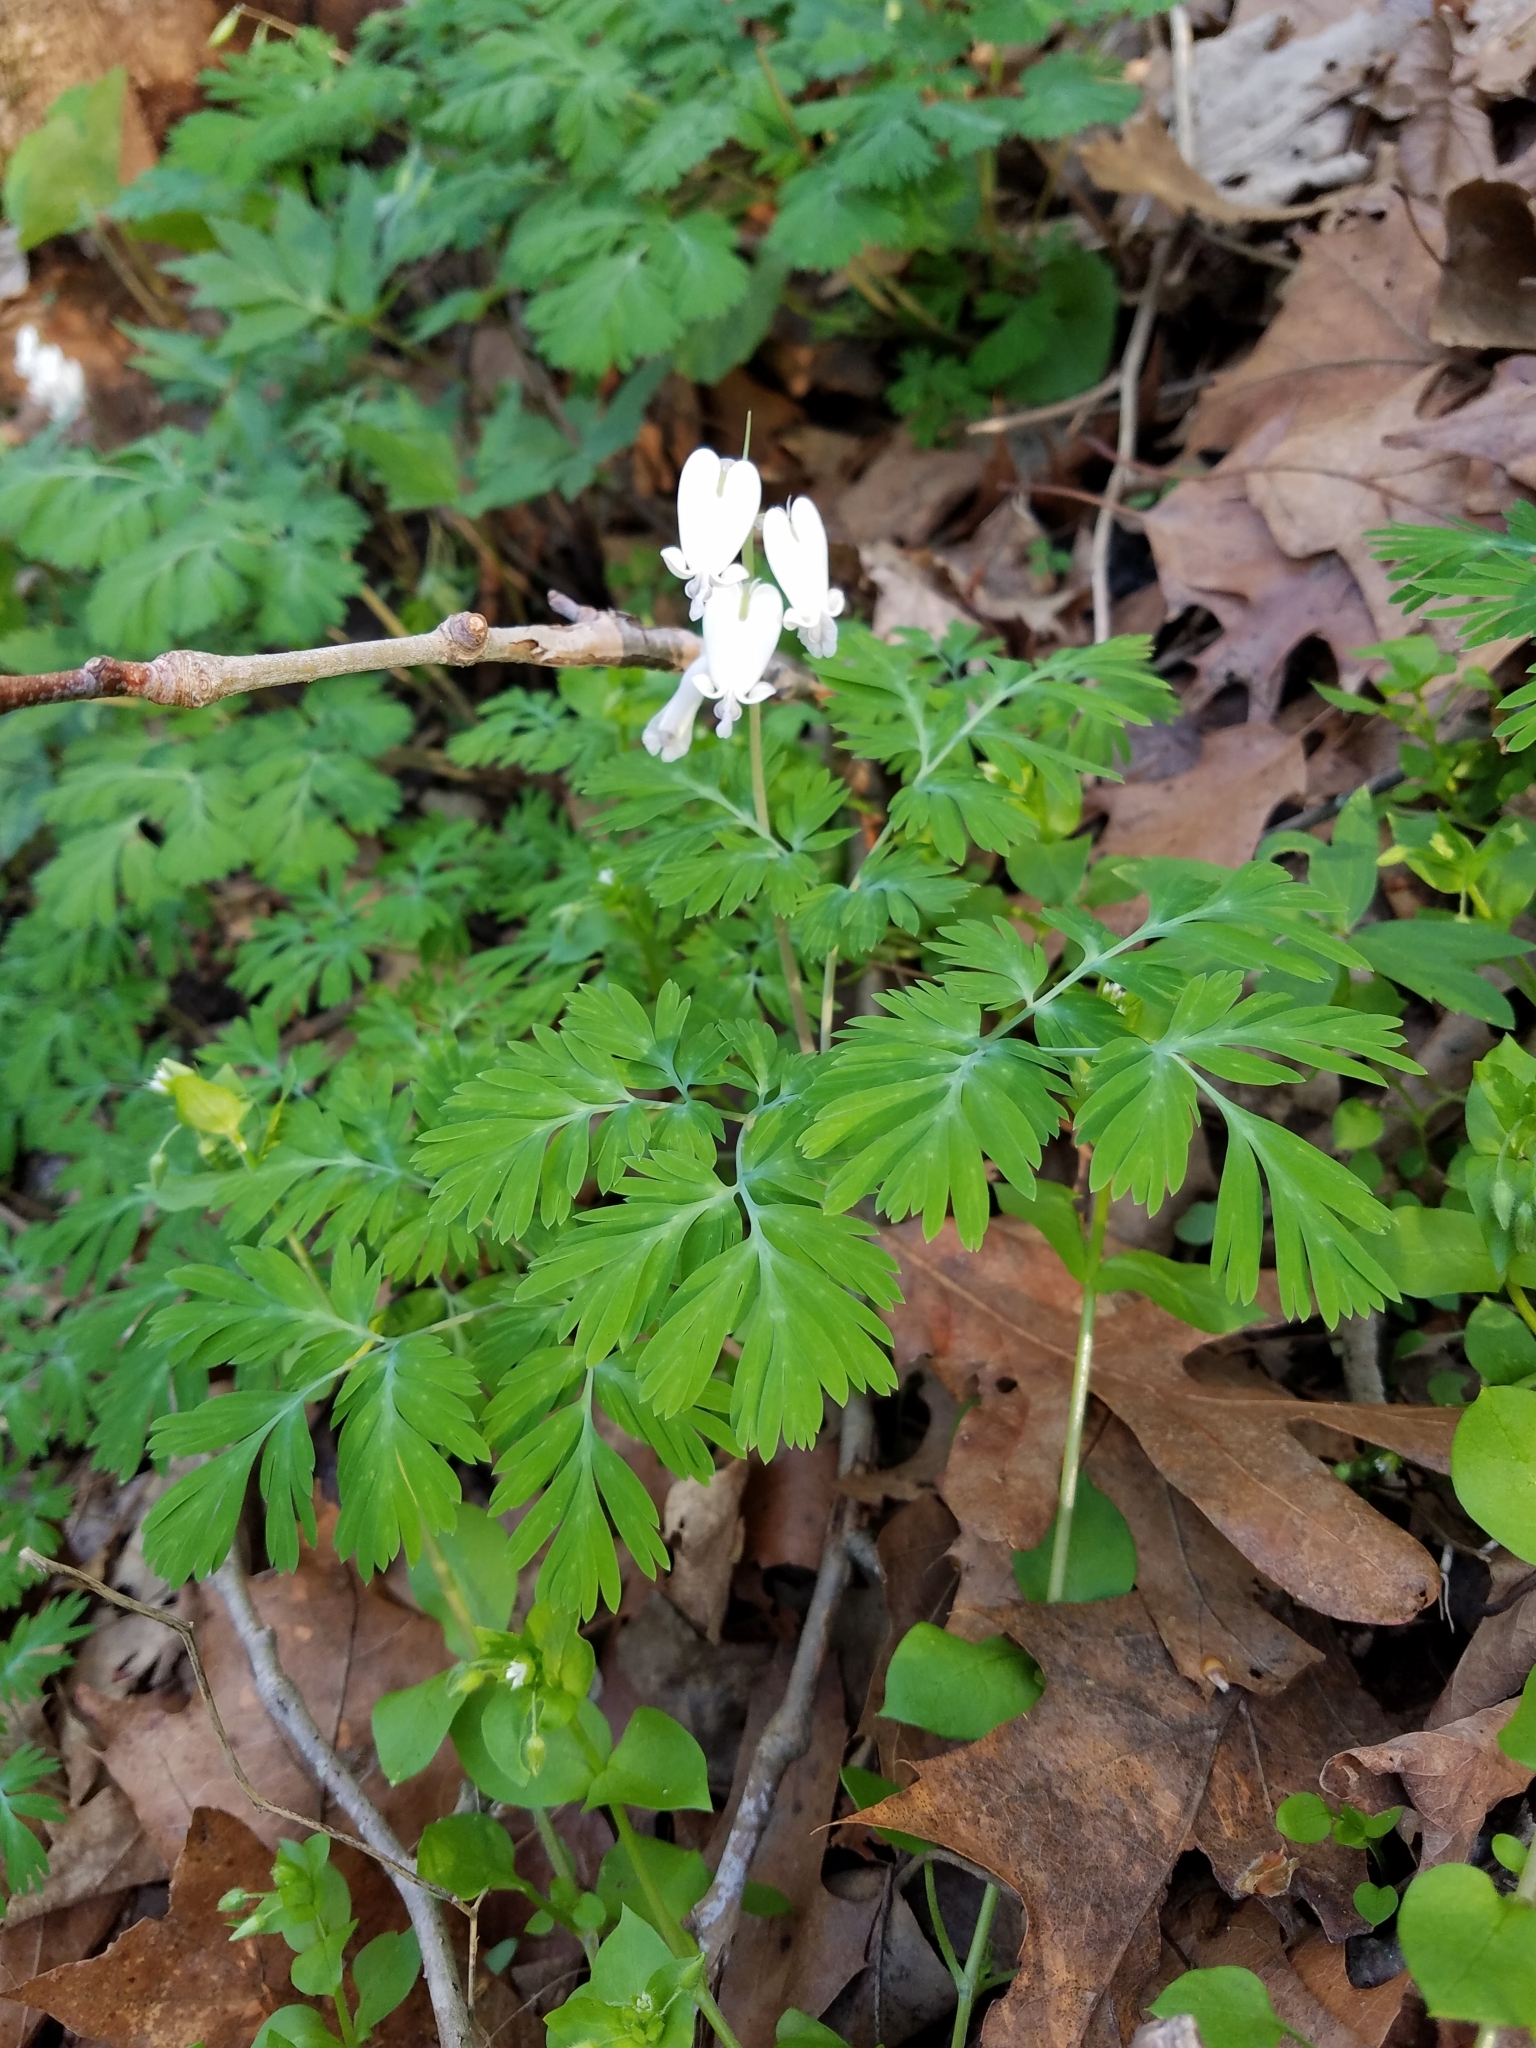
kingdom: Plantae
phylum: Tracheophyta
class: Magnoliopsida
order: Ranunculales
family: Papaveraceae
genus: Dicentra
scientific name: Dicentra canadensis
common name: Squirrel-corn
